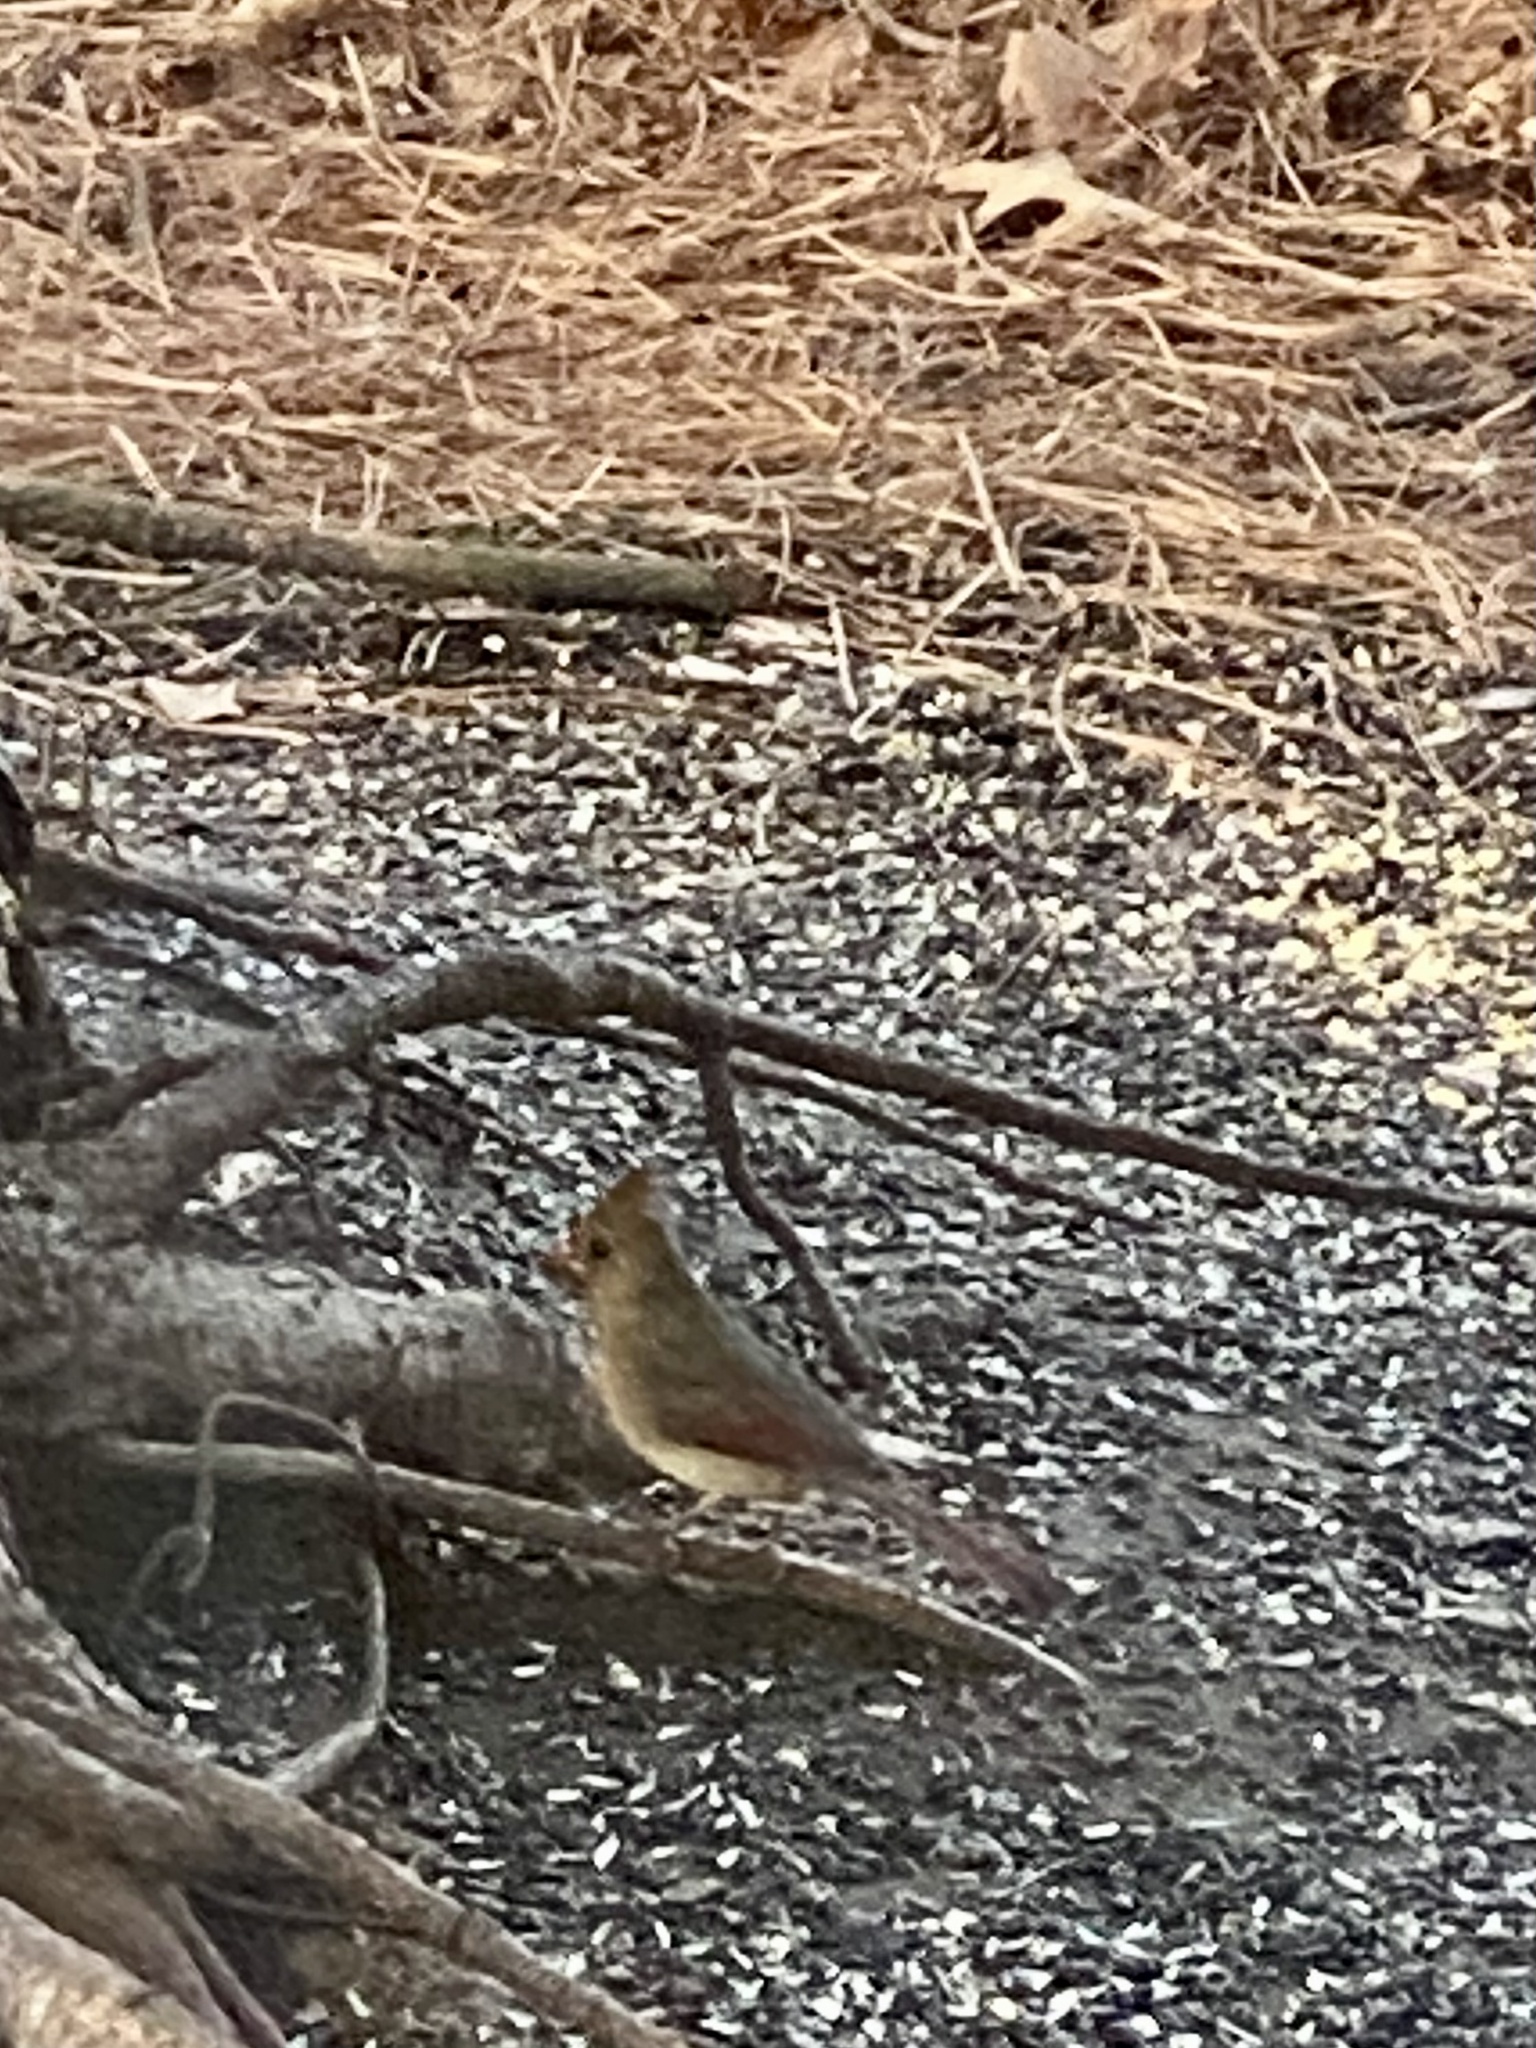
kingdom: Animalia
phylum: Chordata
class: Aves
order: Passeriformes
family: Cardinalidae
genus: Cardinalis
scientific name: Cardinalis cardinalis
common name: Northern cardinal
